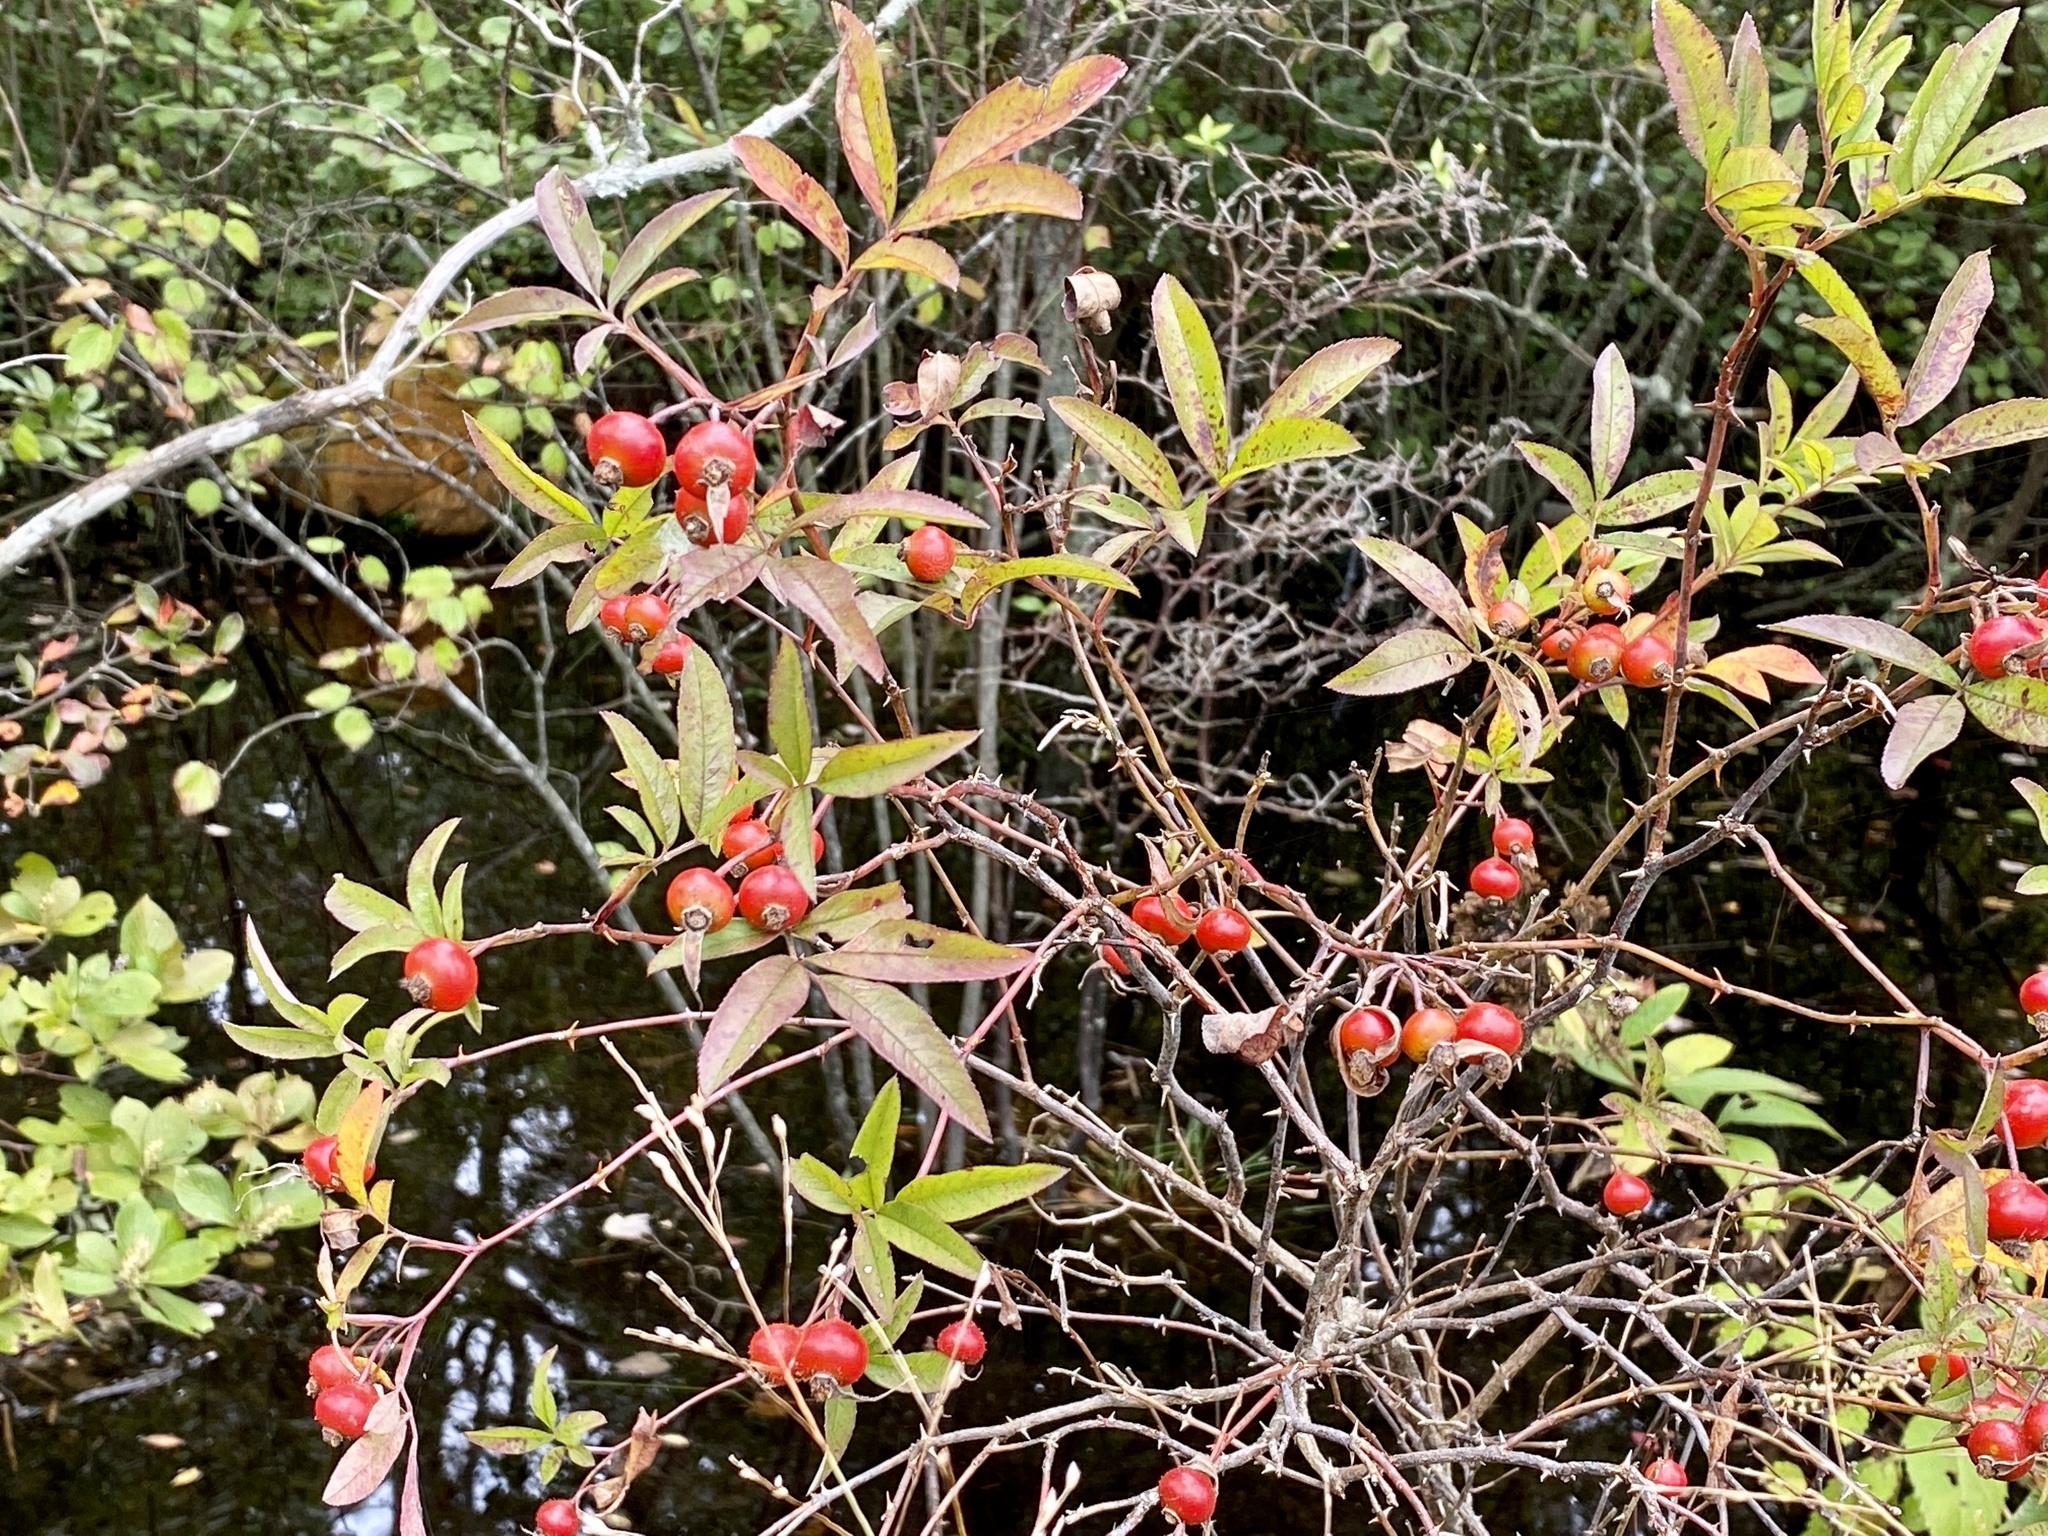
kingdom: Plantae
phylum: Tracheophyta
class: Magnoliopsida
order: Rosales
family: Rosaceae
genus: Rosa
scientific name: Rosa palustris
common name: Swamp rose
